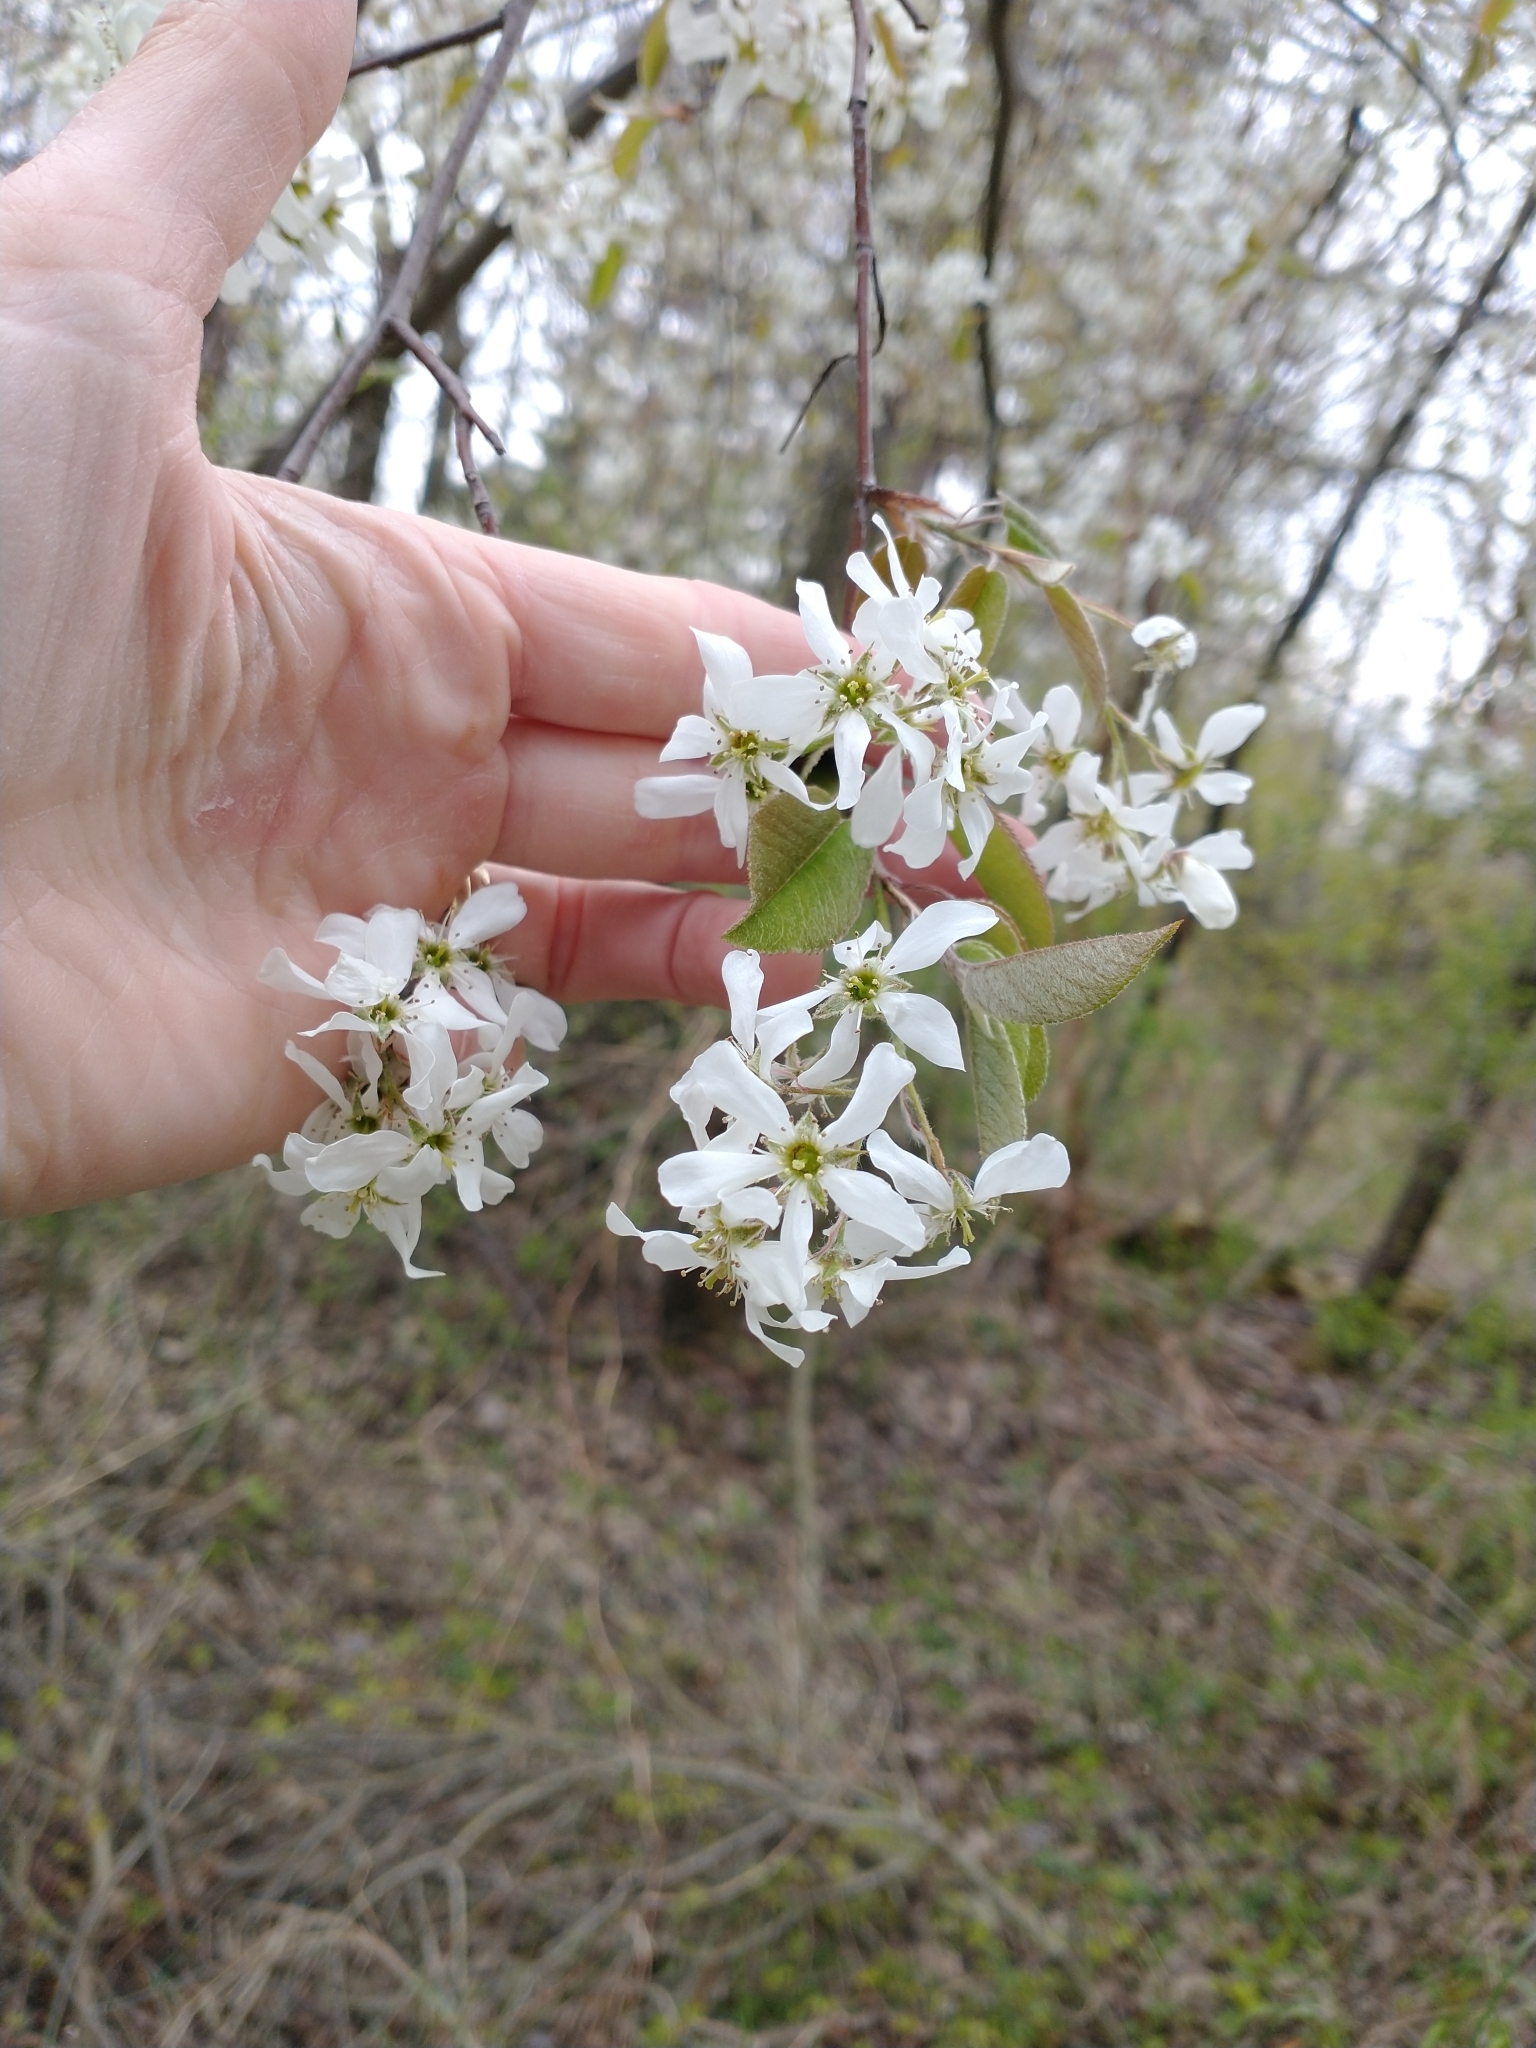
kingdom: Plantae
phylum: Tracheophyta
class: Magnoliopsida
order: Rosales
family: Rosaceae
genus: Amelanchier
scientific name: Amelanchier arborea
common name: Downy serviceberry
